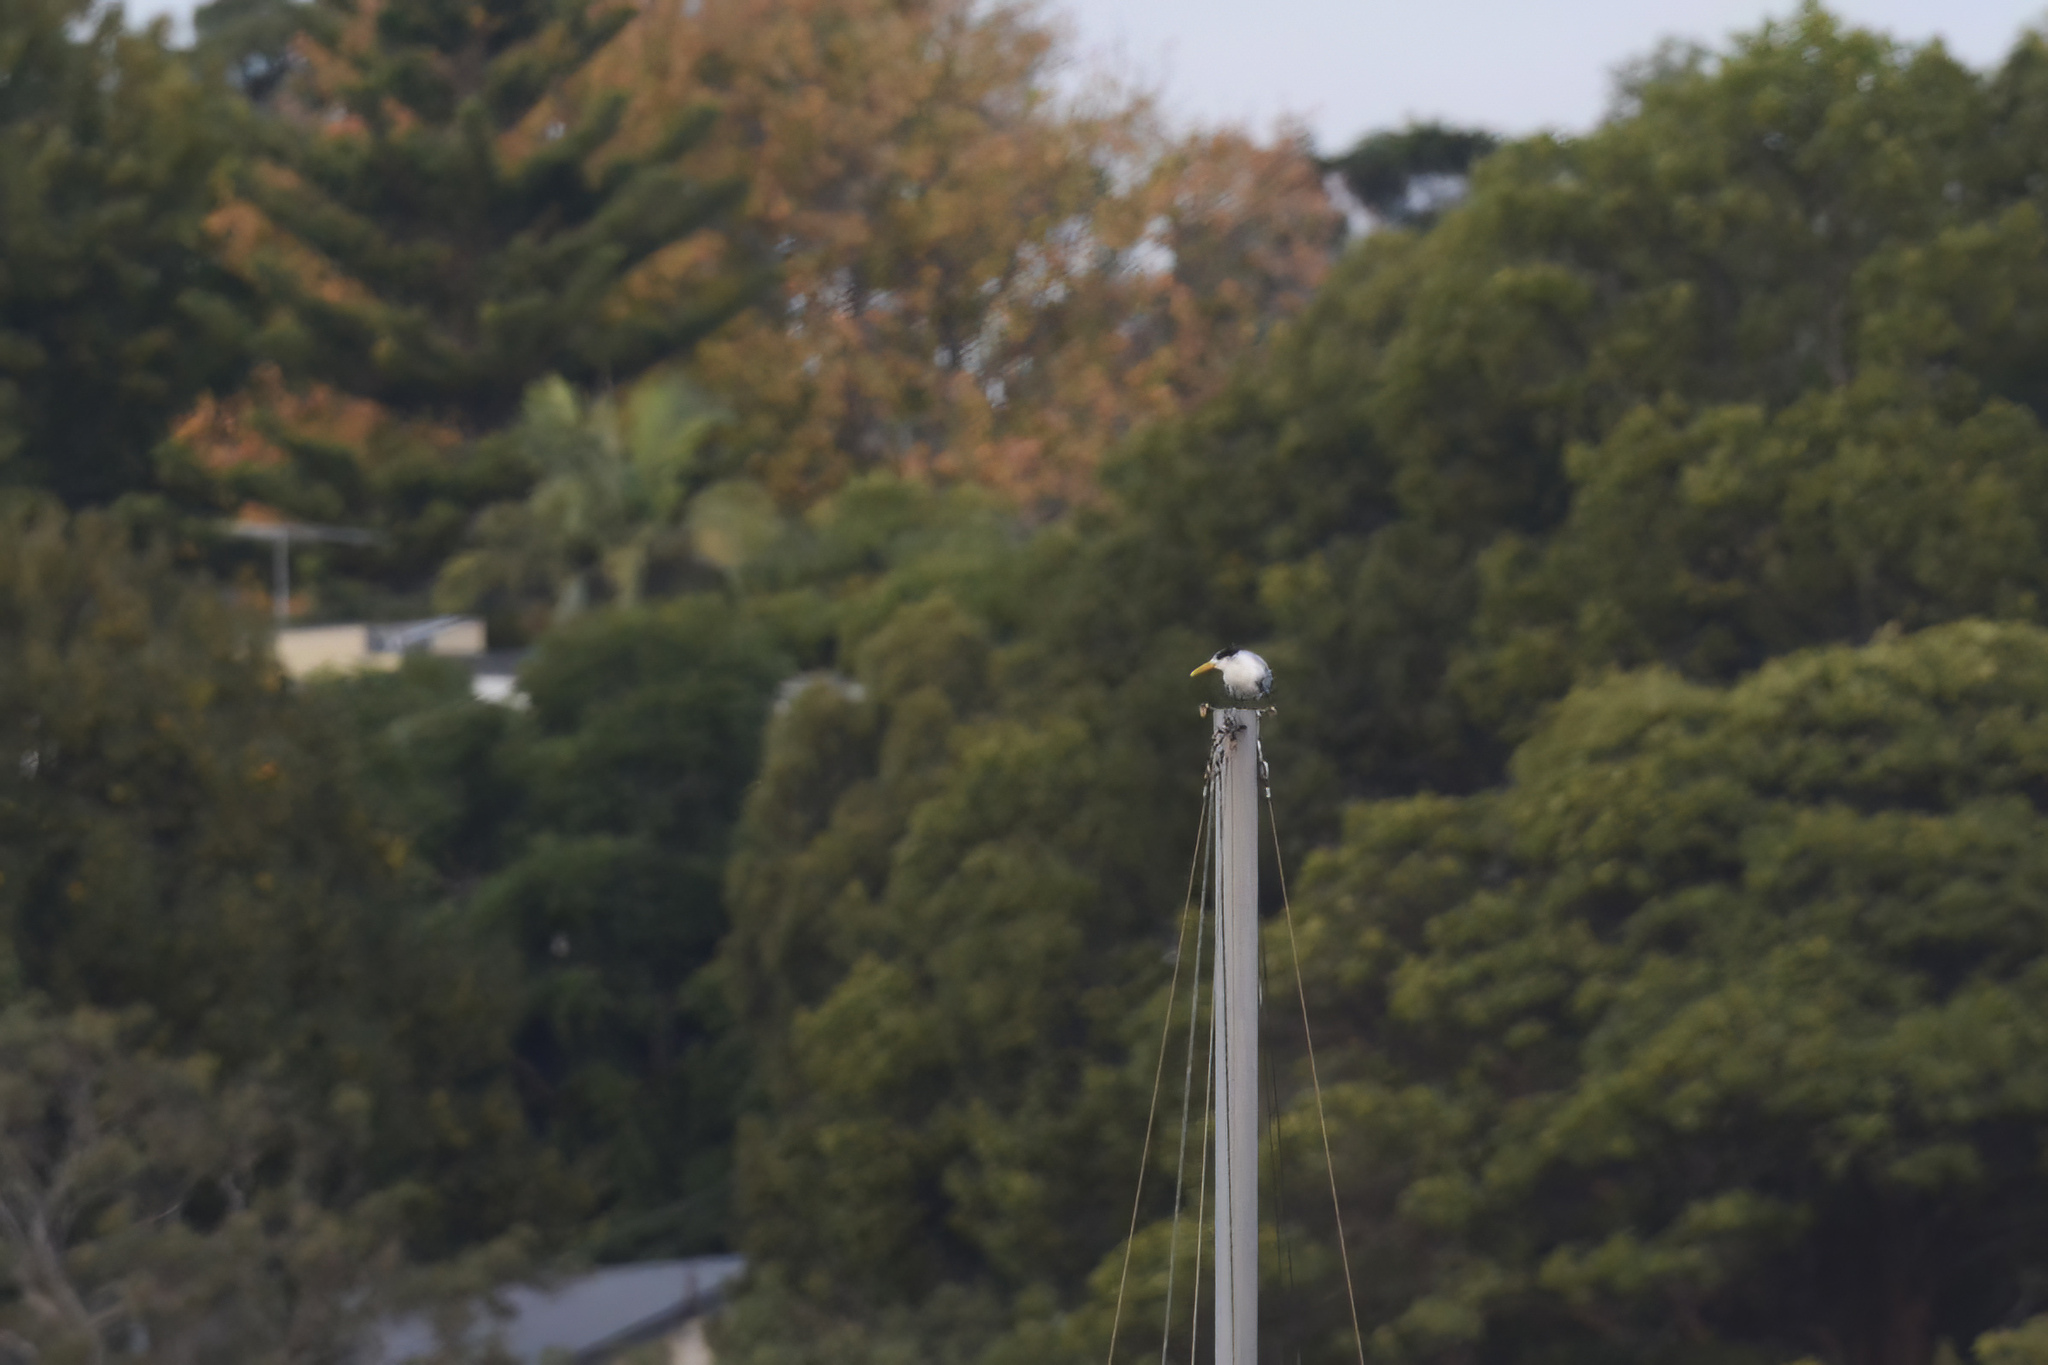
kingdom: Animalia
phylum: Chordata
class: Aves
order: Charadriiformes
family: Laridae
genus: Thalasseus
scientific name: Thalasseus bergii
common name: Greater crested tern
